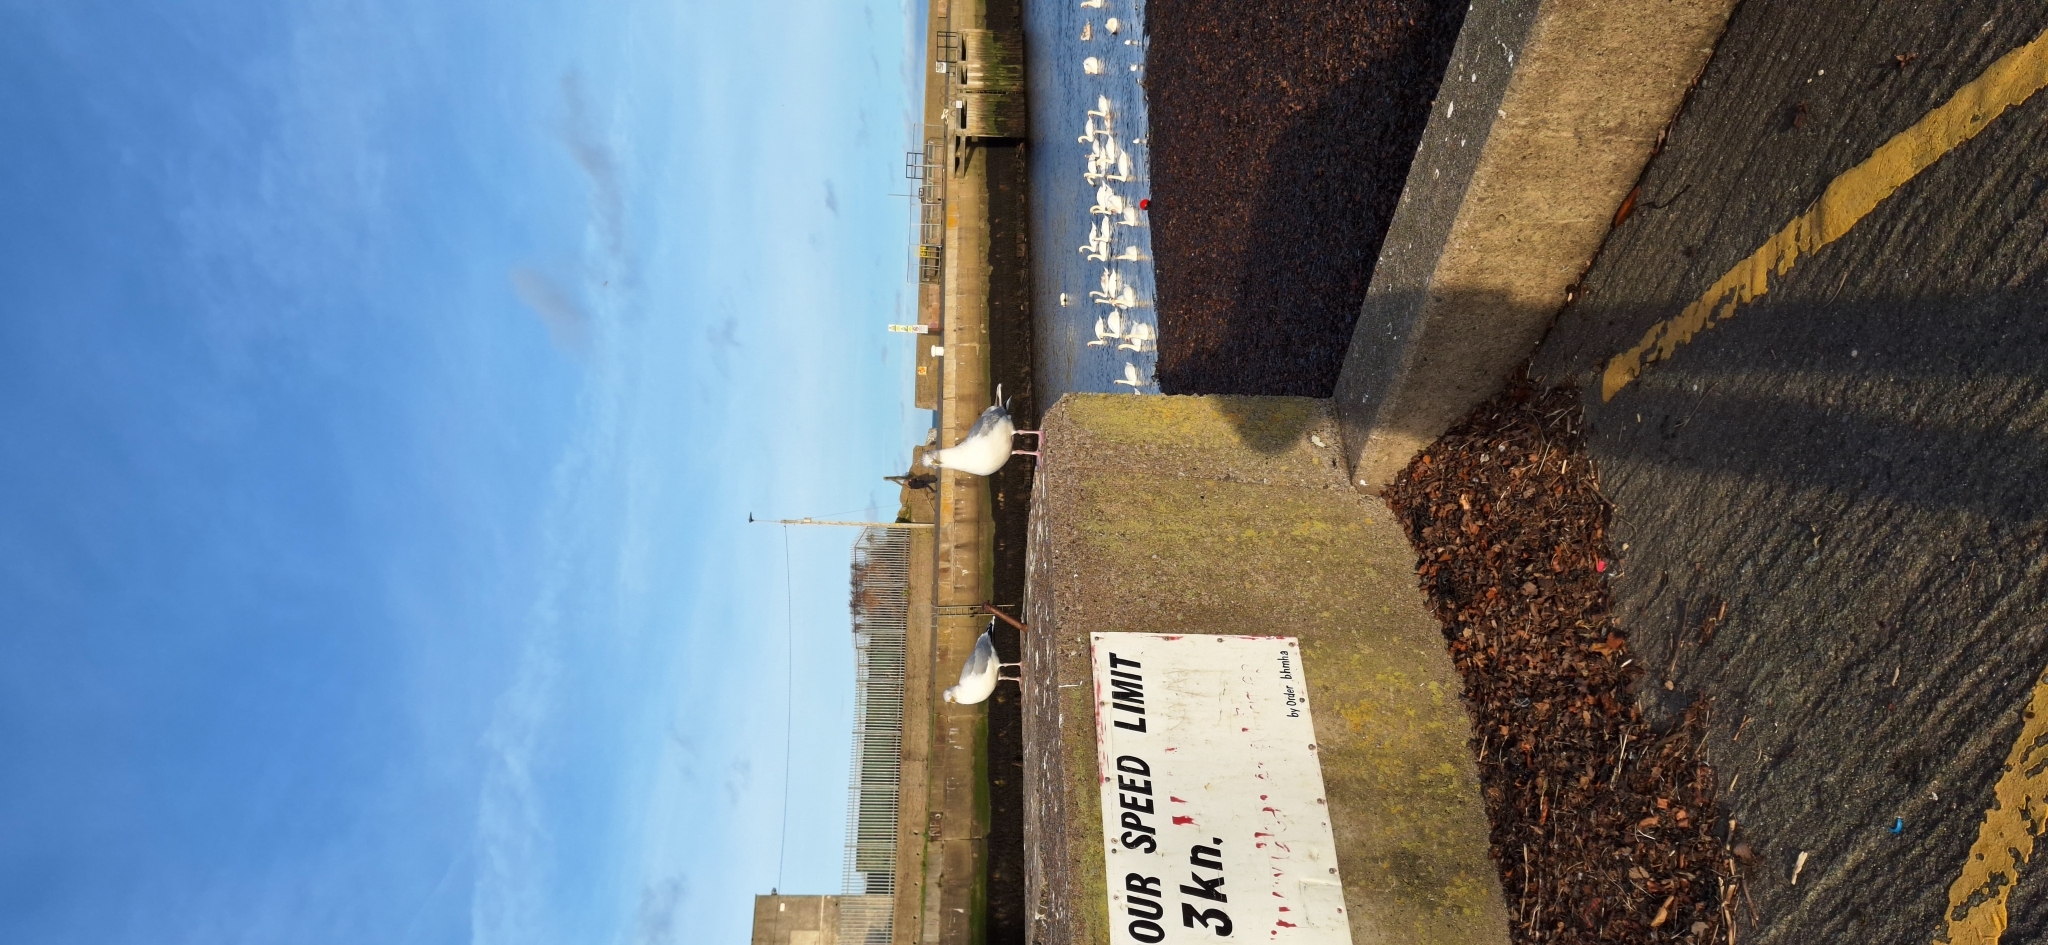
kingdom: Animalia
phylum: Chordata
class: Aves
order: Charadriiformes
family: Laridae
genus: Larus
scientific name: Larus argentatus
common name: Herring gull
